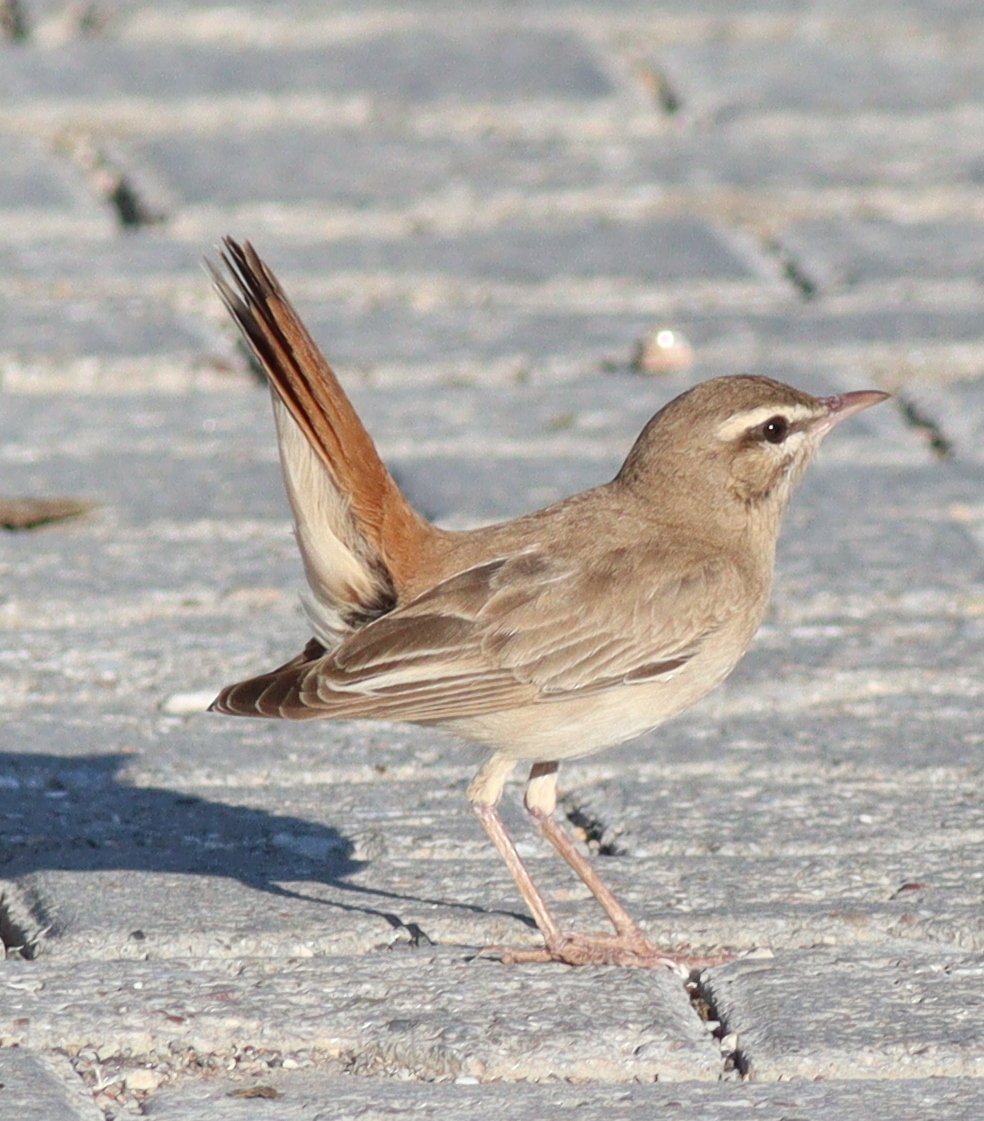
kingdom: Animalia
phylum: Chordata
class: Aves
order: Passeriformes
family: Muscicapidae
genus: Erythropygia
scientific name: Erythropygia galactotes
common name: Rufous-tailed scrub robin
